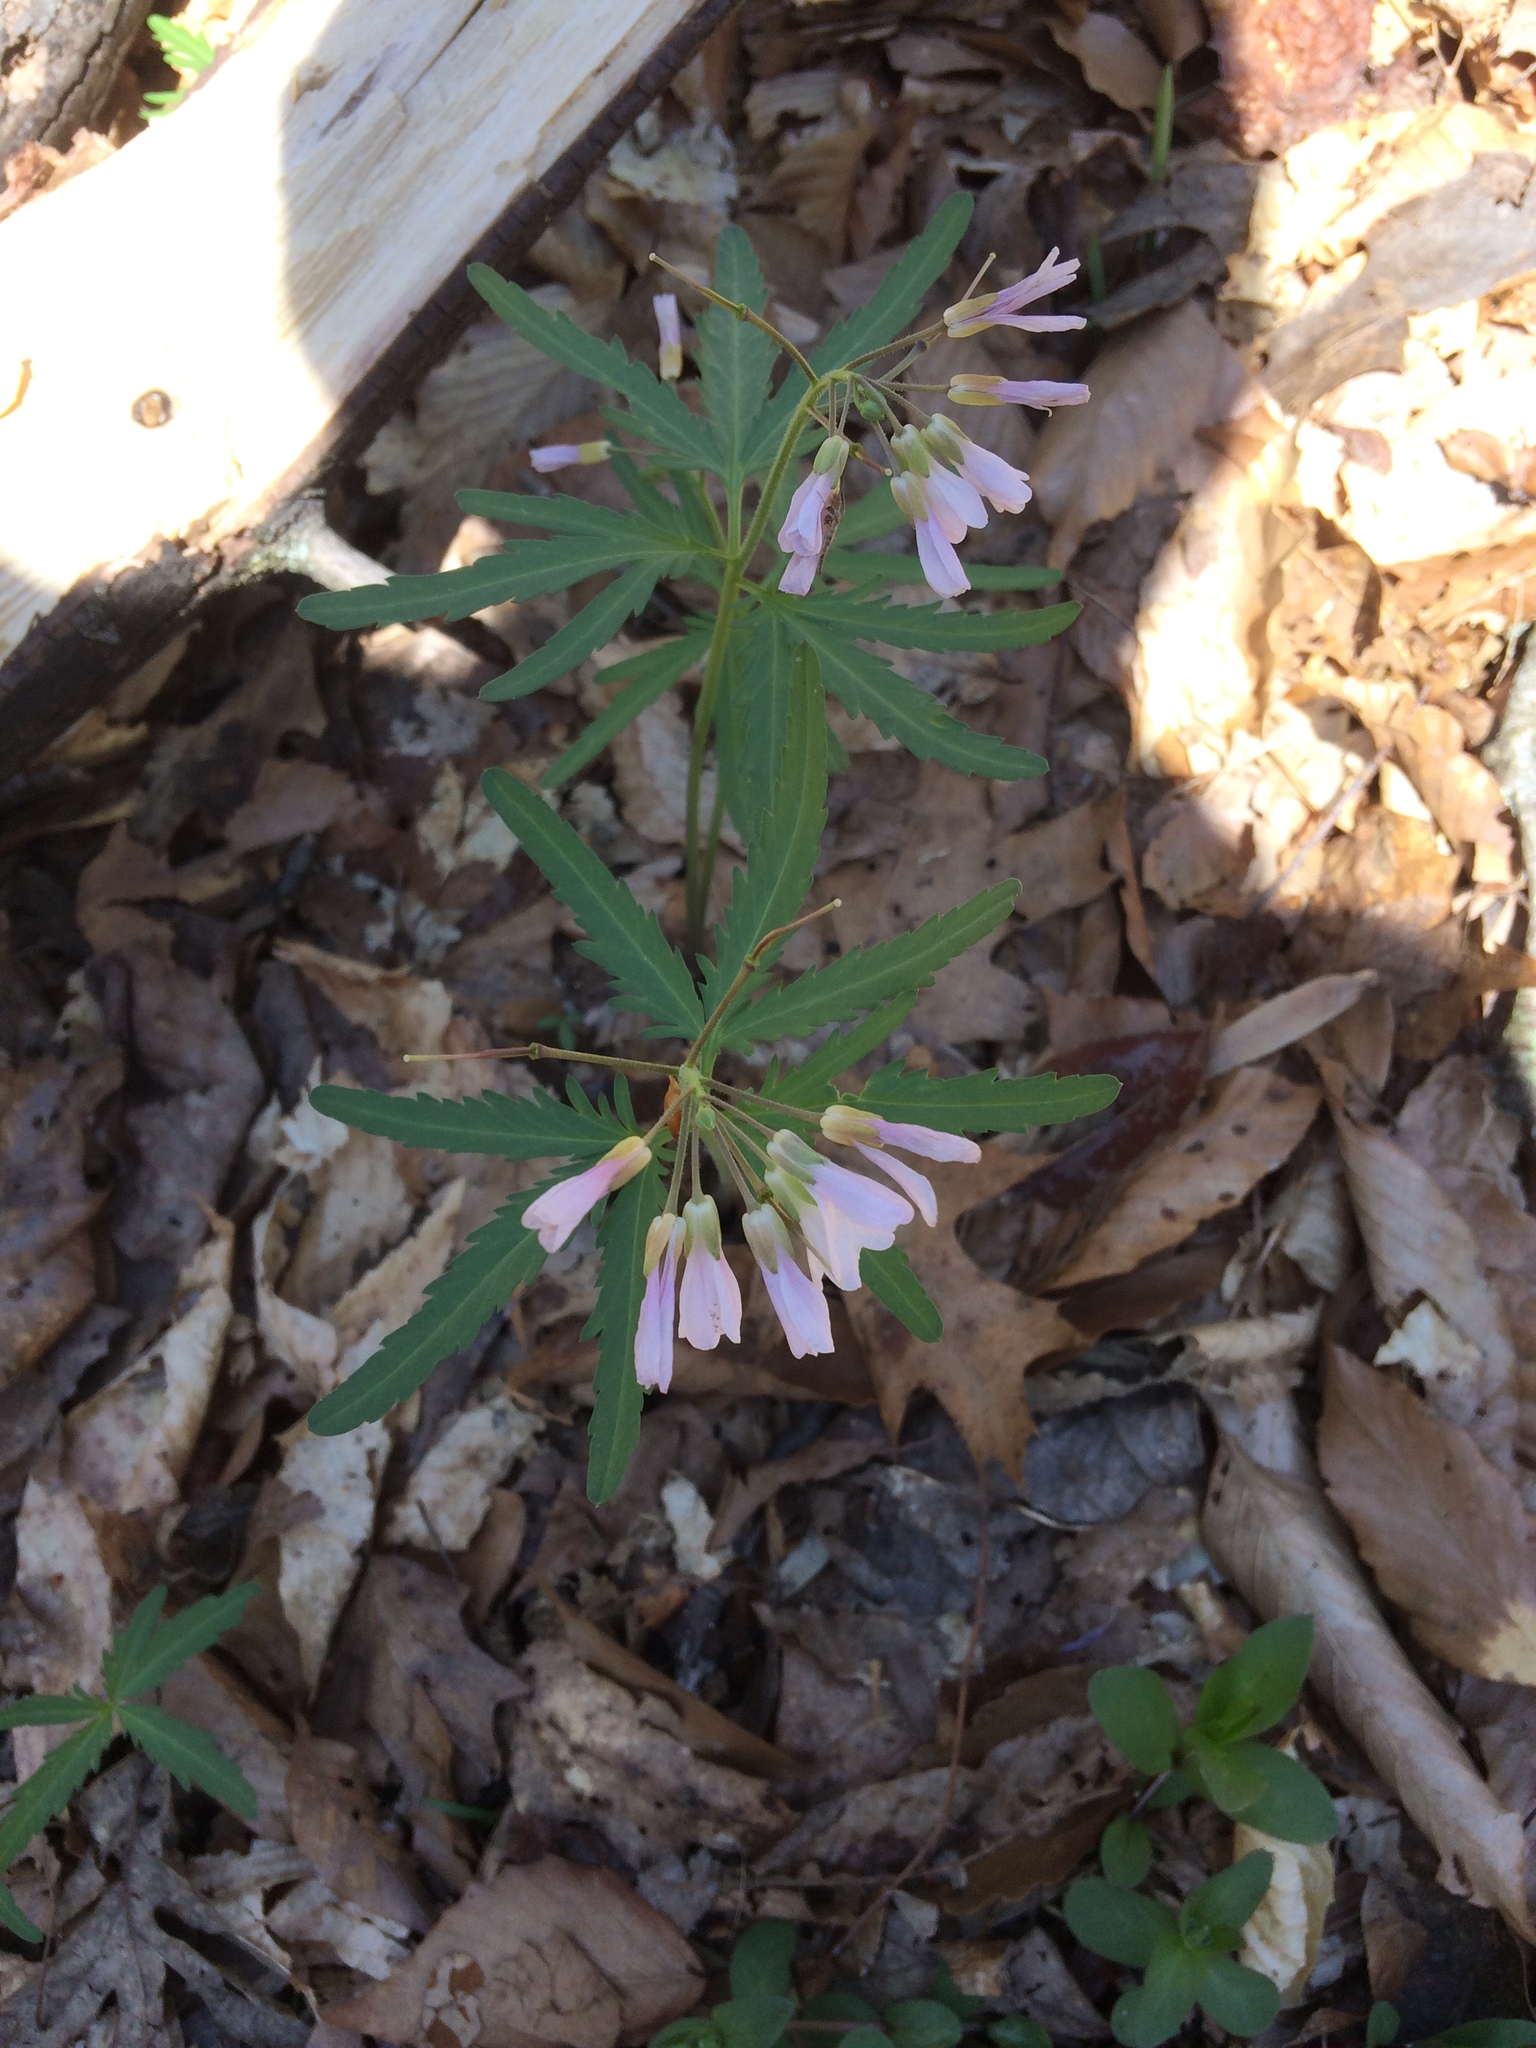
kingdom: Plantae
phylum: Tracheophyta
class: Magnoliopsida
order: Brassicales
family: Brassicaceae
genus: Cardamine
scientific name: Cardamine concatenata
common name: Cut-leaf toothcup
